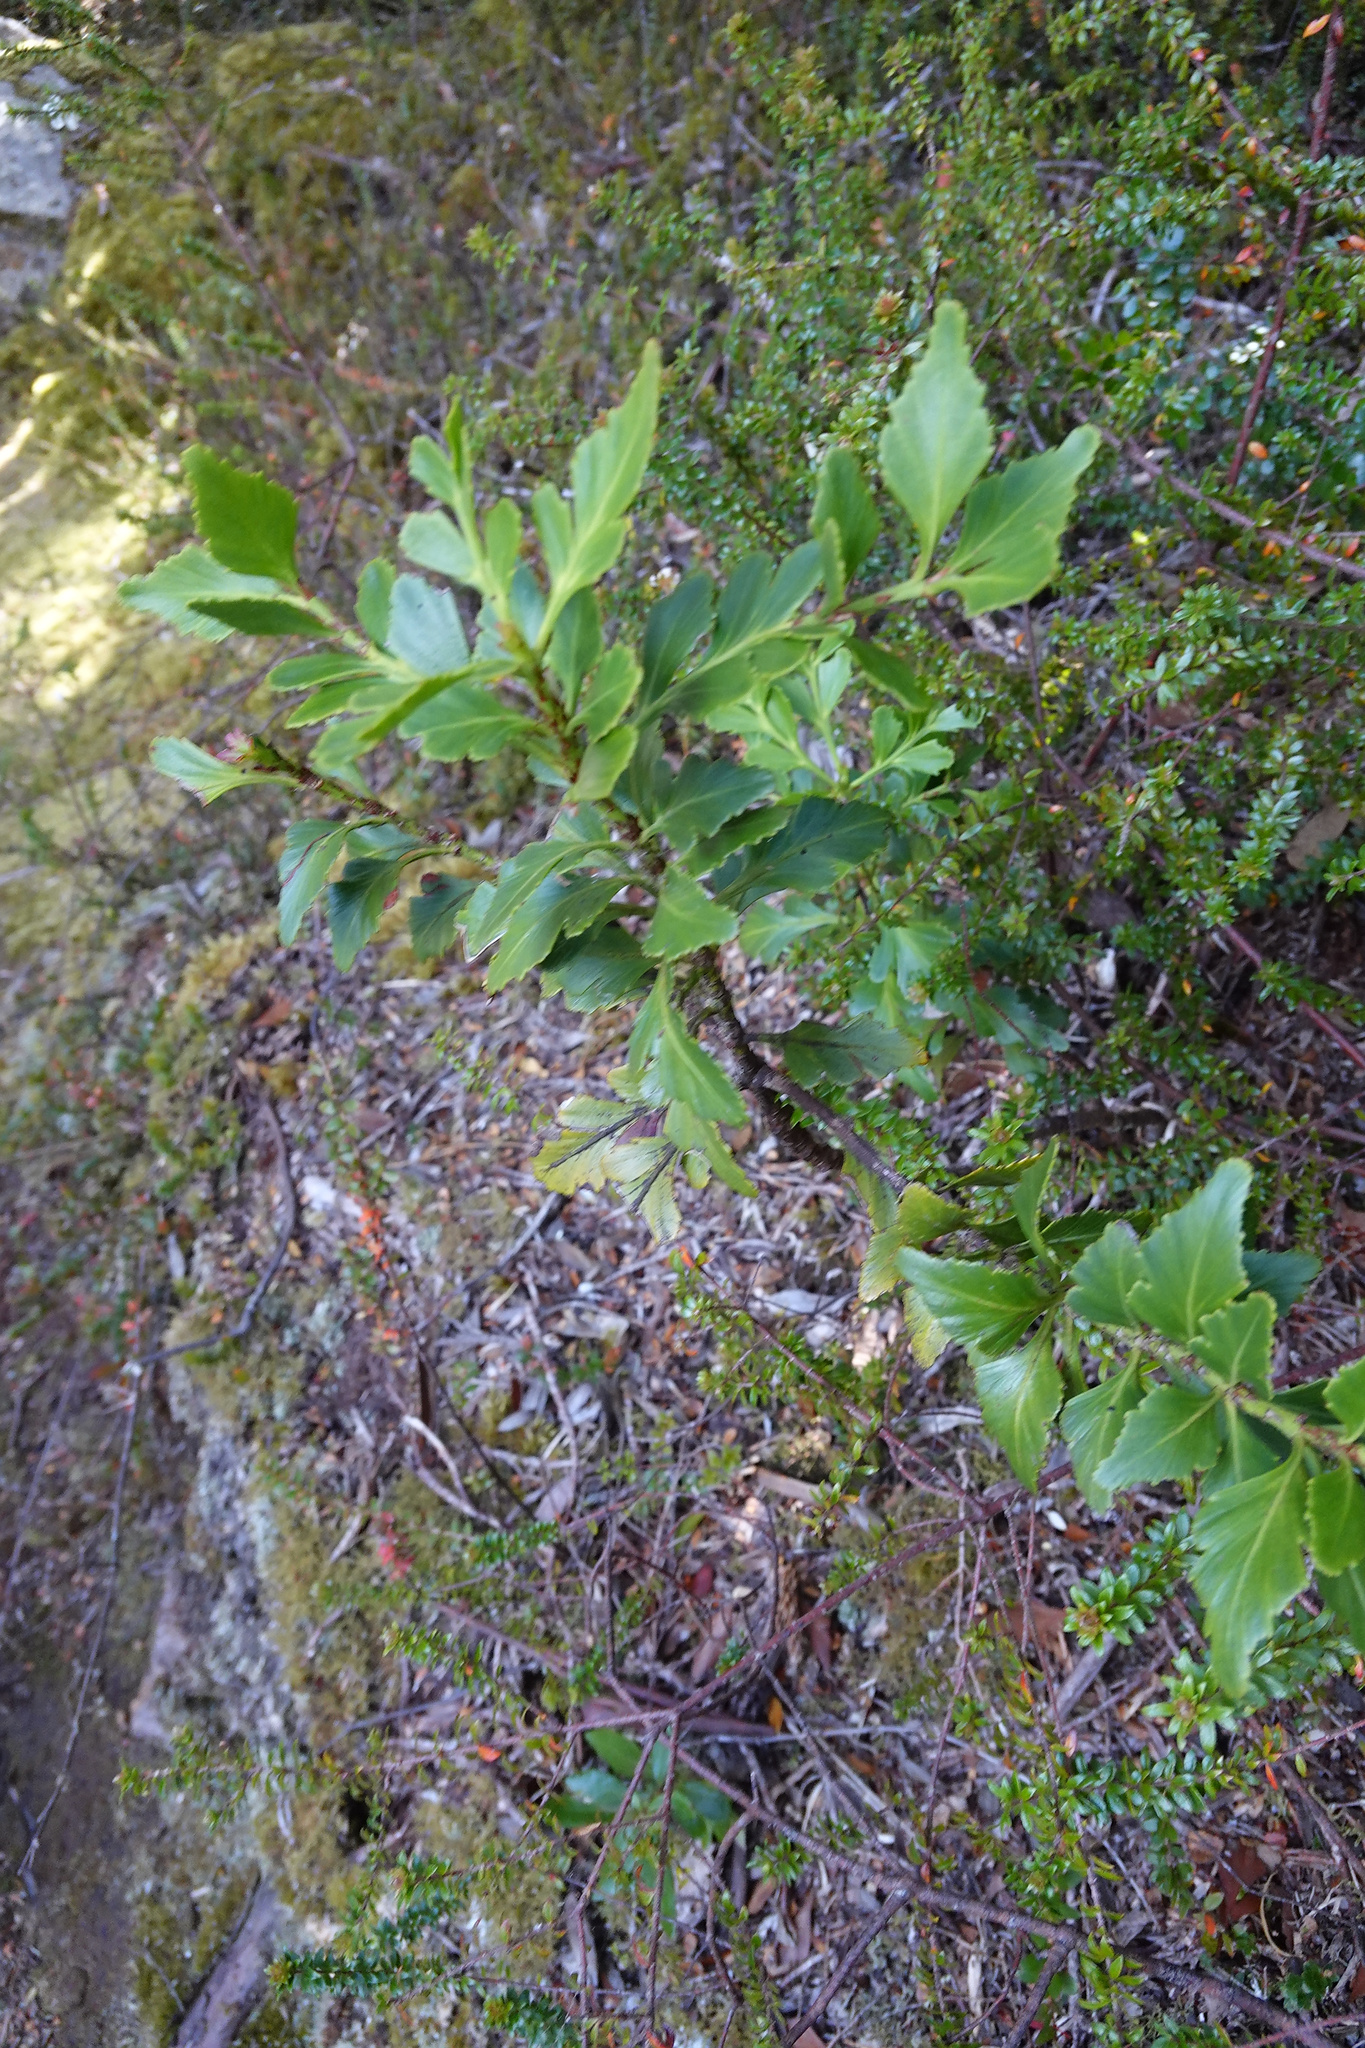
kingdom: Plantae
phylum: Tracheophyta
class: Pinopsida
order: Pinales
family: Phyllocladaceae
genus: Phyllocladus
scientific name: Phyllocladus aspleniifolius
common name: Celery-top pine
